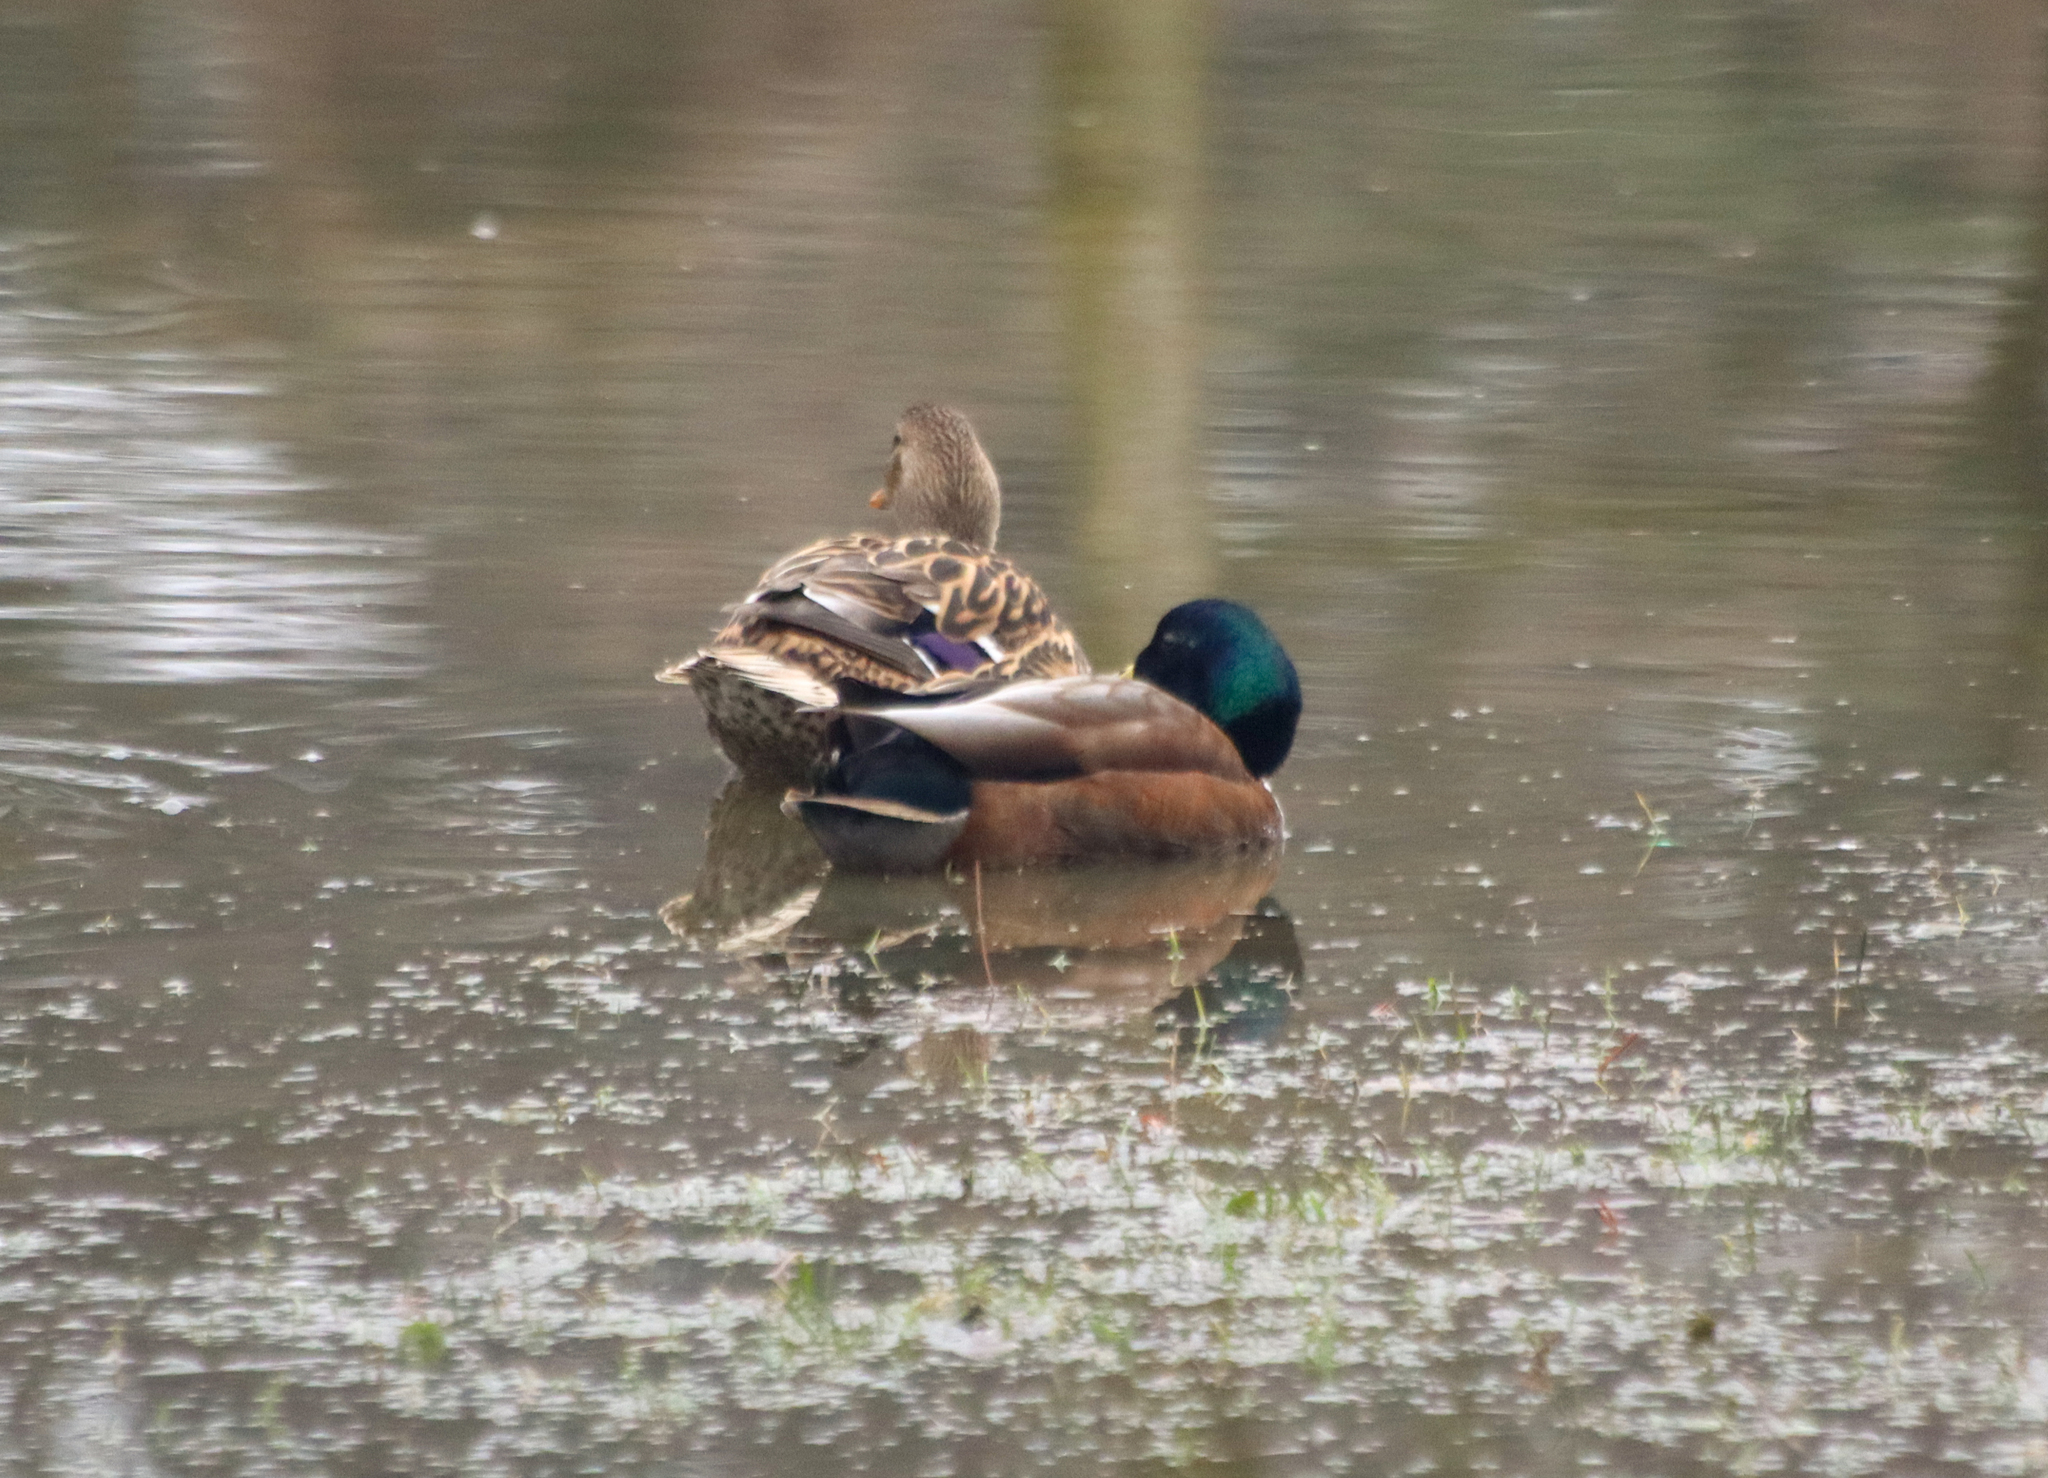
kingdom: Animalia
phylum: Chordata
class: Aves
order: Anseriformes
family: Anatidae
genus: Anas
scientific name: Anas platyrhynchos
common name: Mallard
